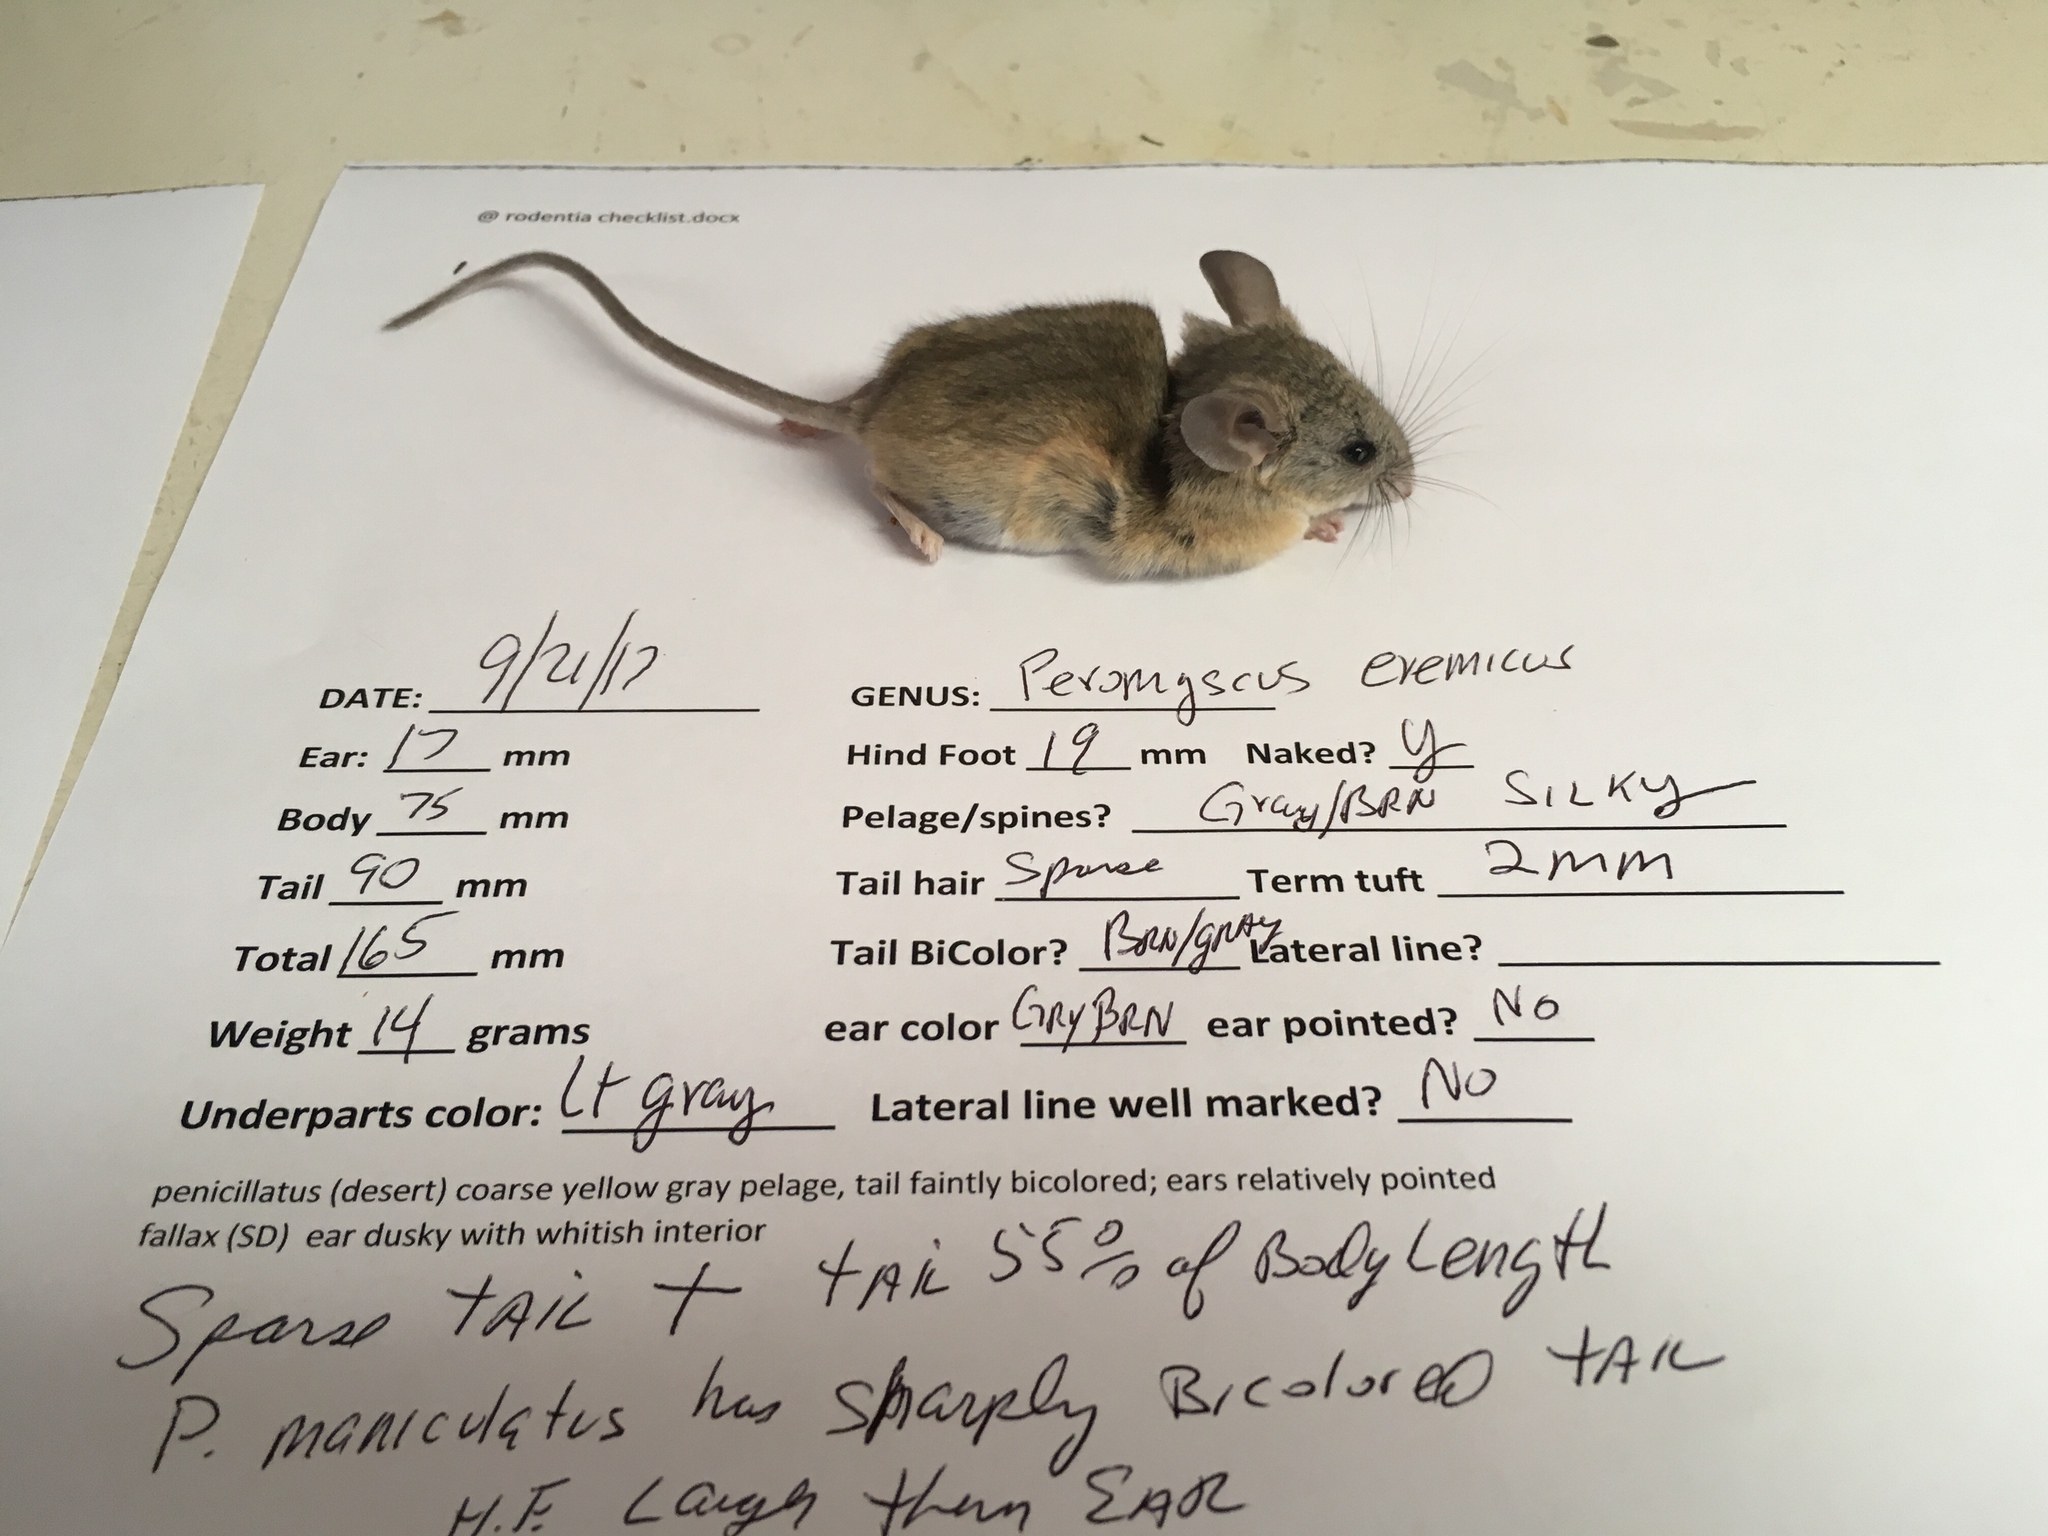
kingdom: Animalia
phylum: Chordata
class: Mammalia
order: Rodentia
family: Cricetidae
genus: Peromyscus
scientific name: Peromyscus eremicus
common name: Cactus deermouse
